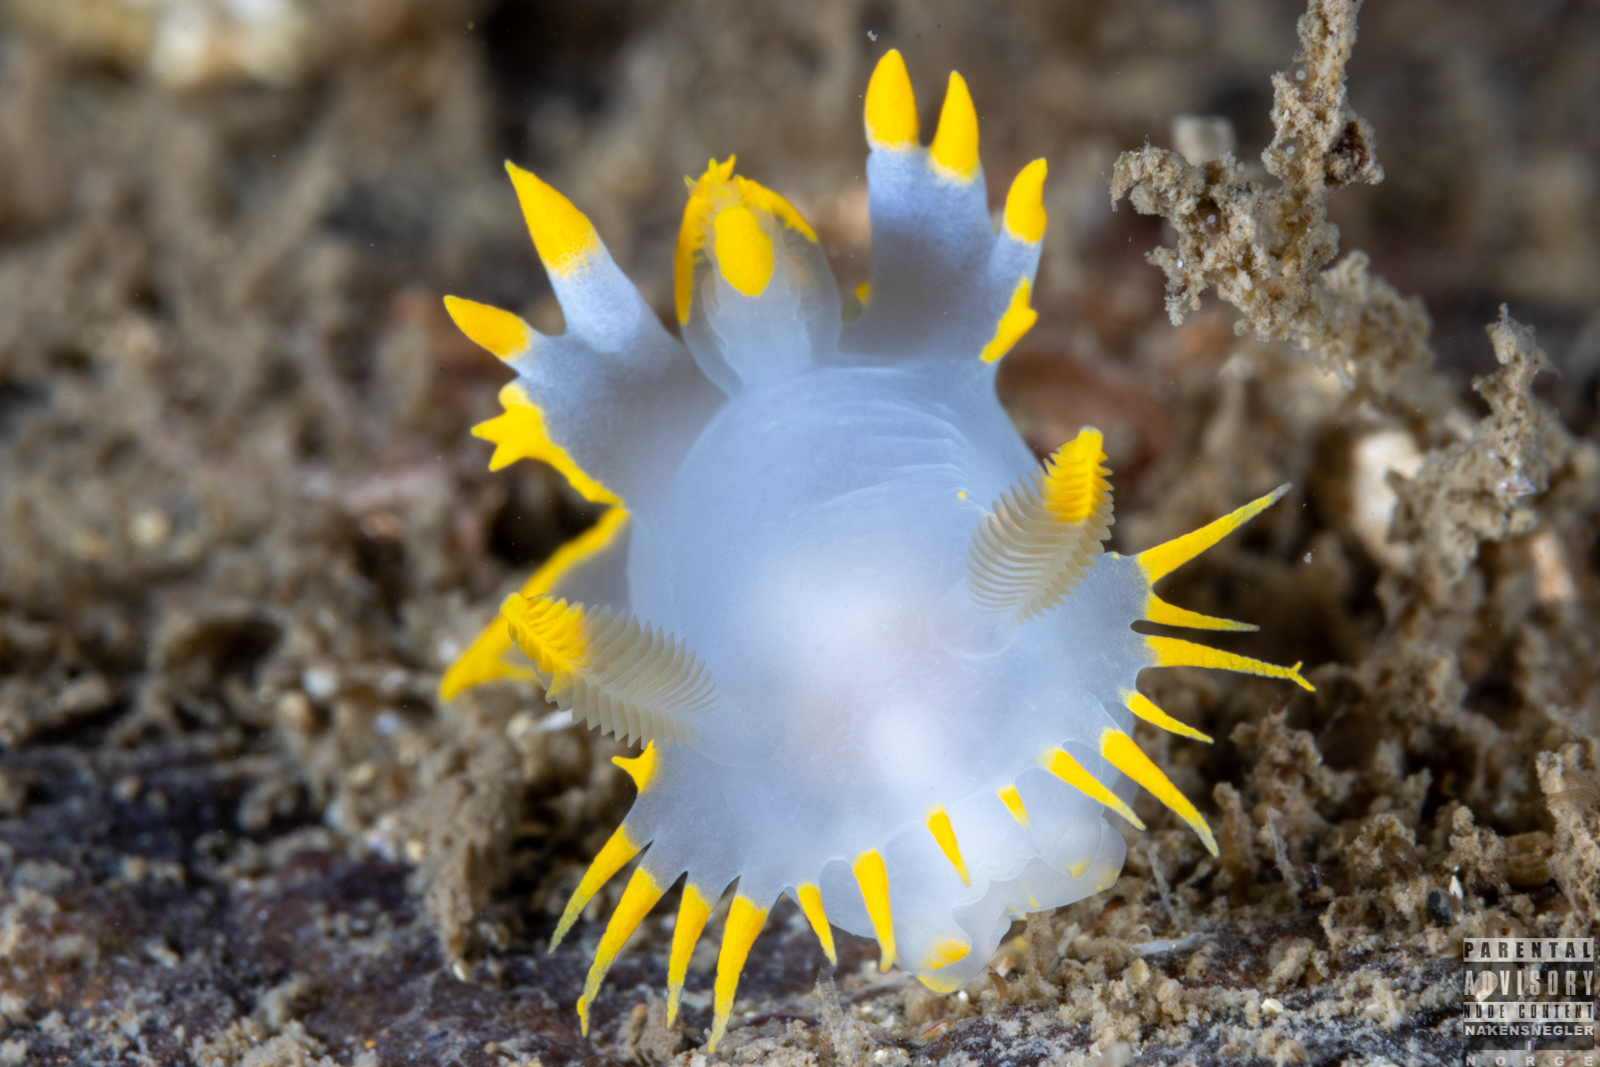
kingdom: Animalia
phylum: Mollusca
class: Gastropoda
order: Nudibranchia
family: Polyceridae
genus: Polycera
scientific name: Polycera faeroensis
